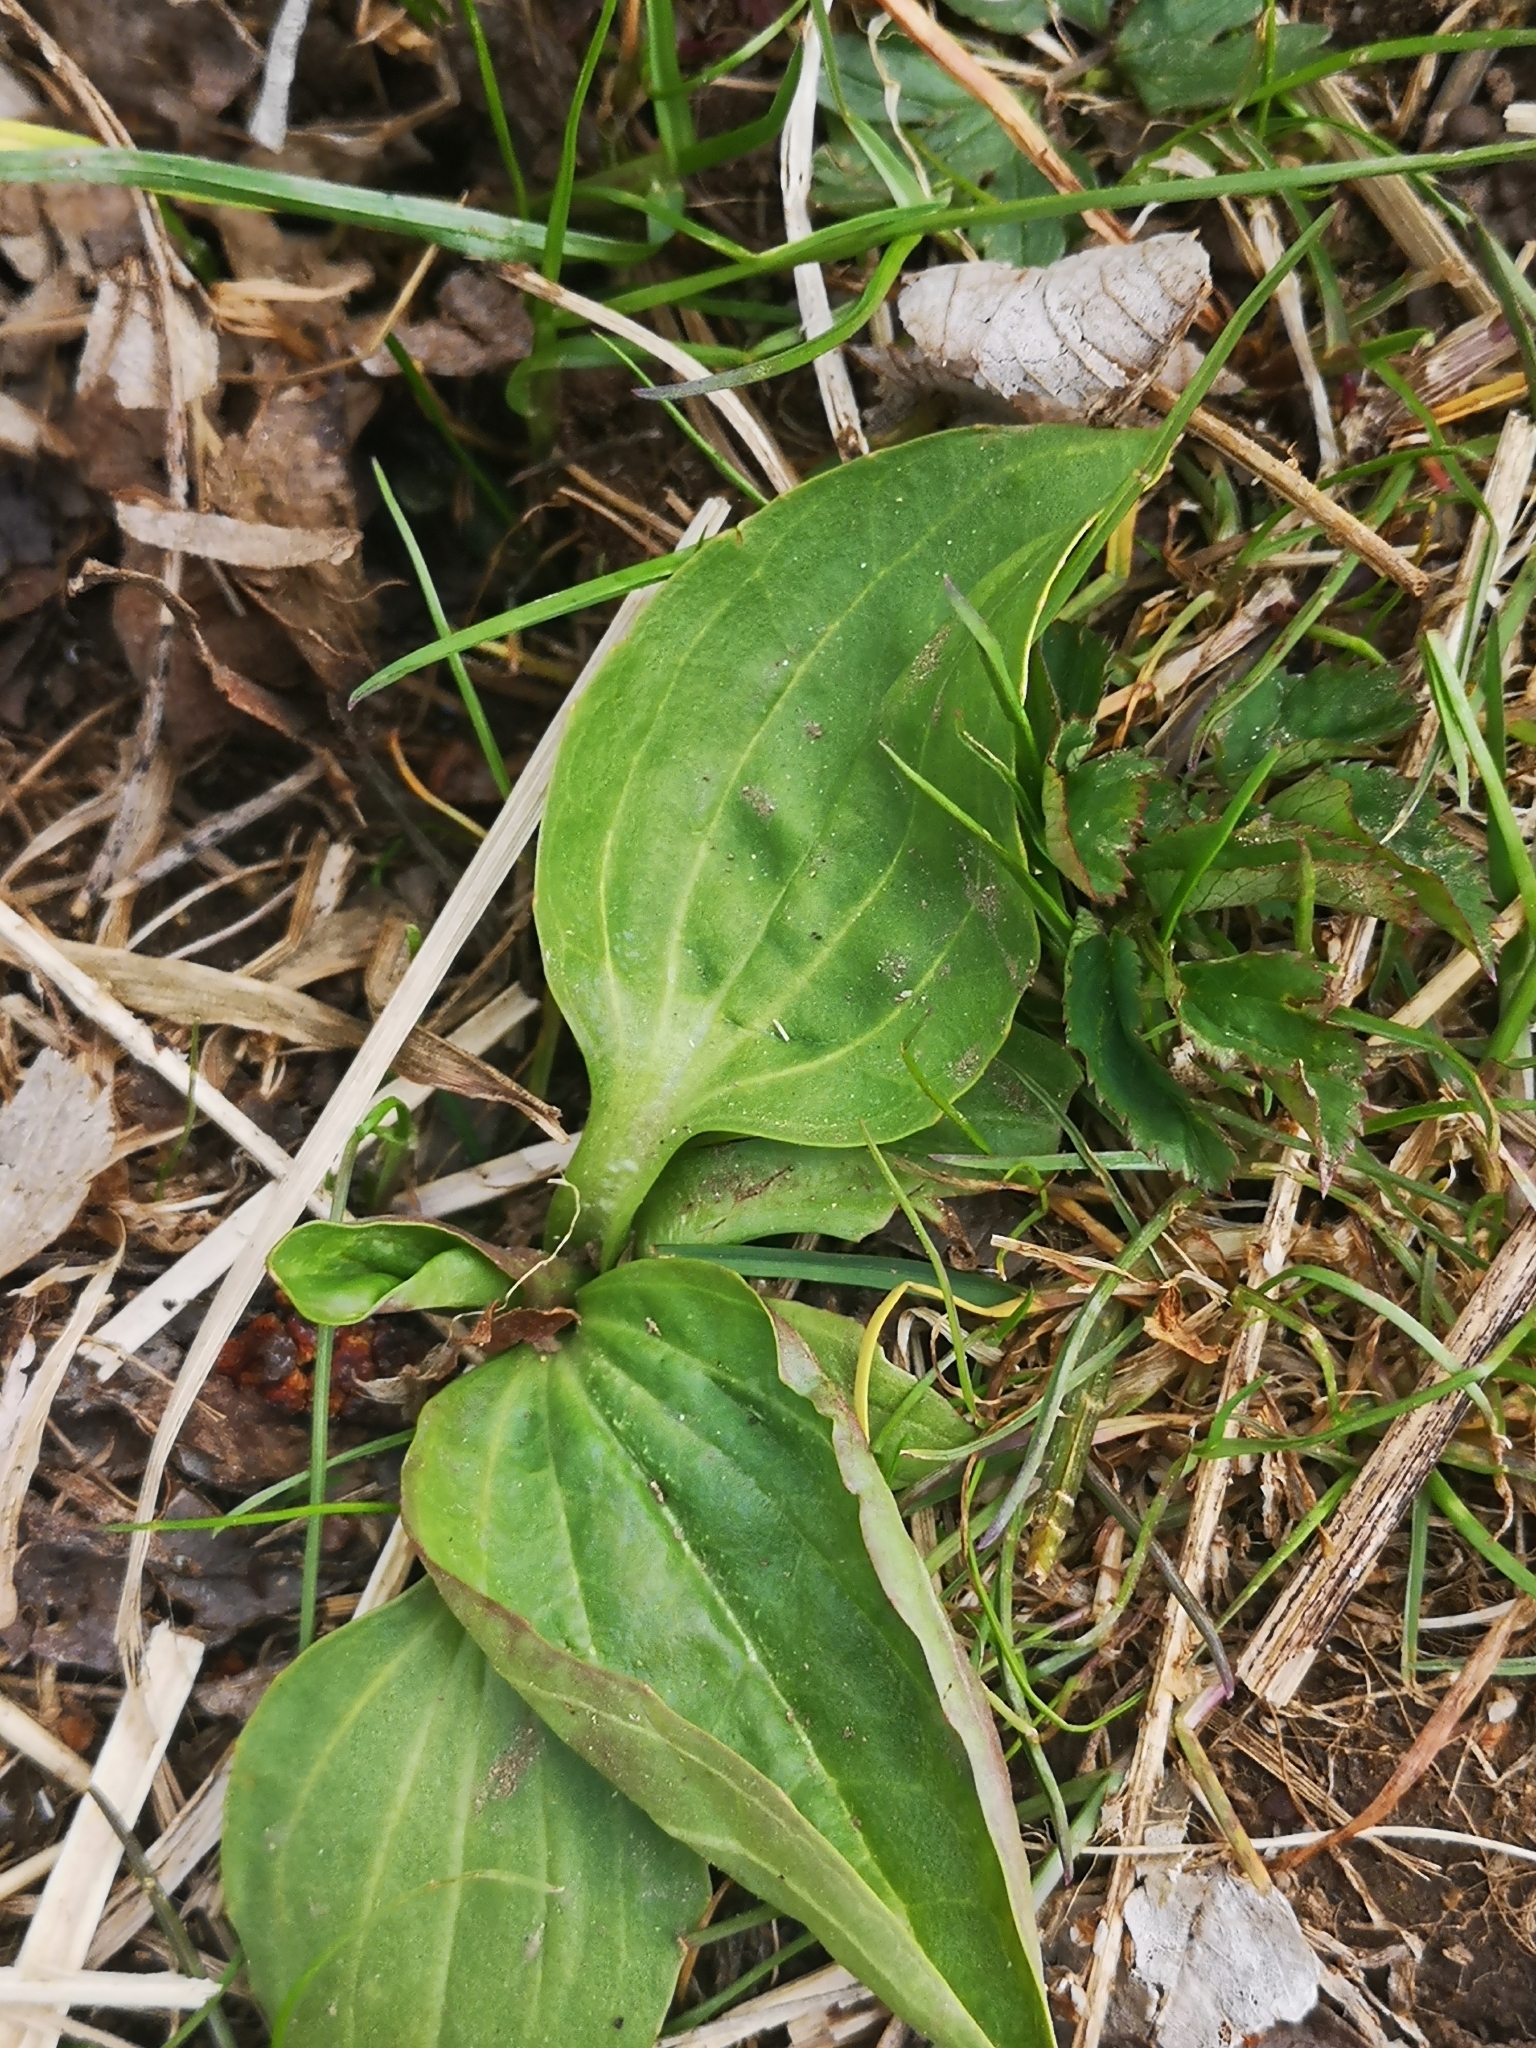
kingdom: Plantae
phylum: Tracheophyta
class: Magnoliopsida
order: Lamiales
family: Plantaginaceae
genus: Plantago
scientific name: Plantago major
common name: Common plantain
